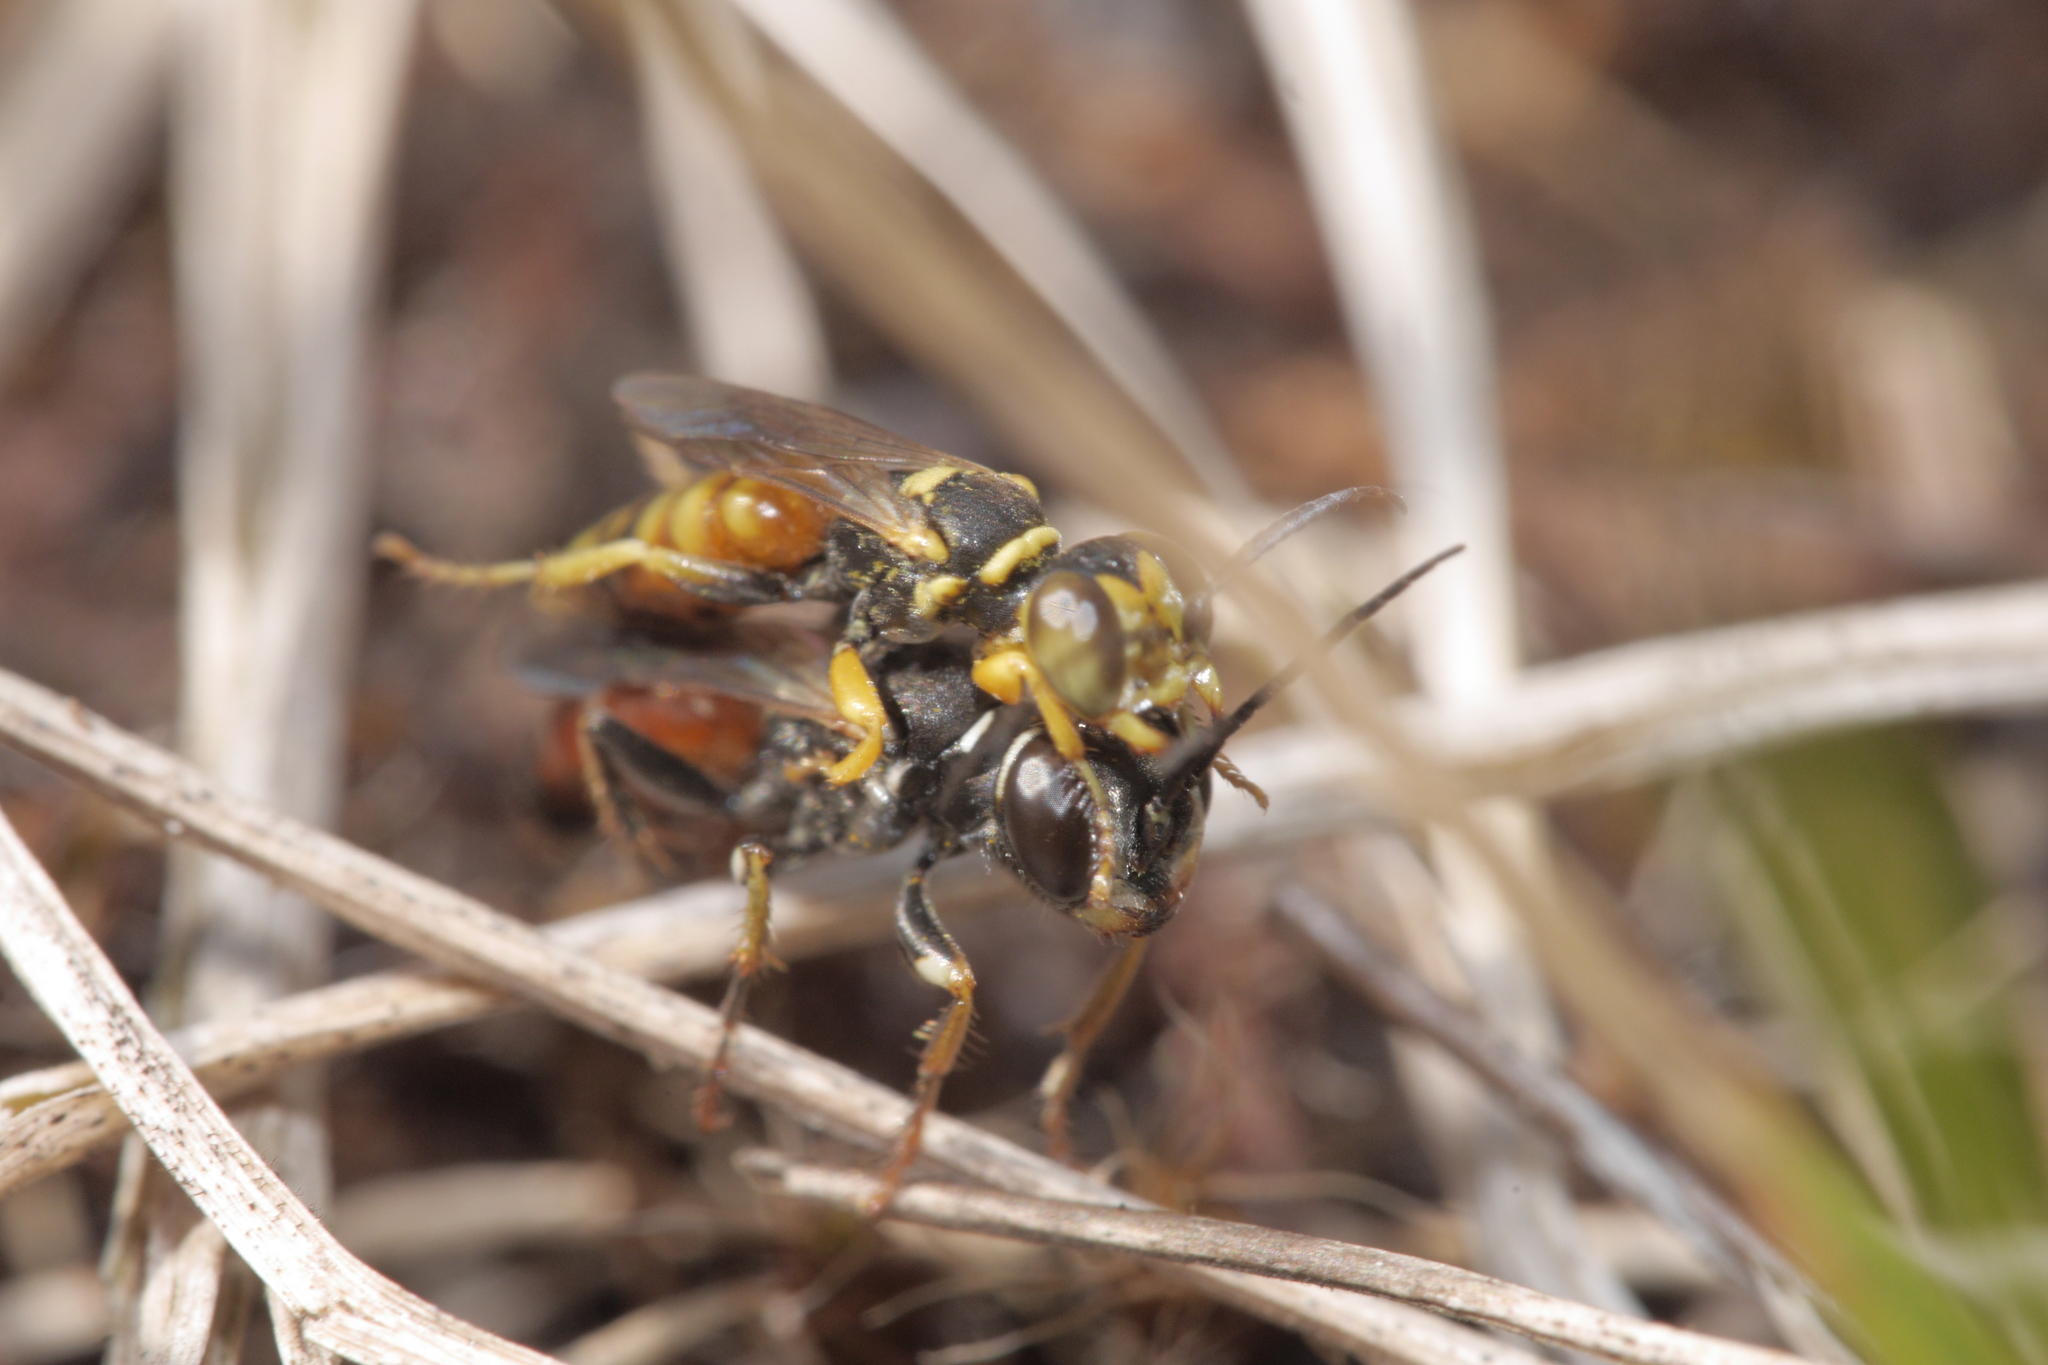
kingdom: Animalia
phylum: Arthropoda
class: Insecta
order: Hymenoptera
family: Crabronidae
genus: Dinetus
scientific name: Dinetus pictus
